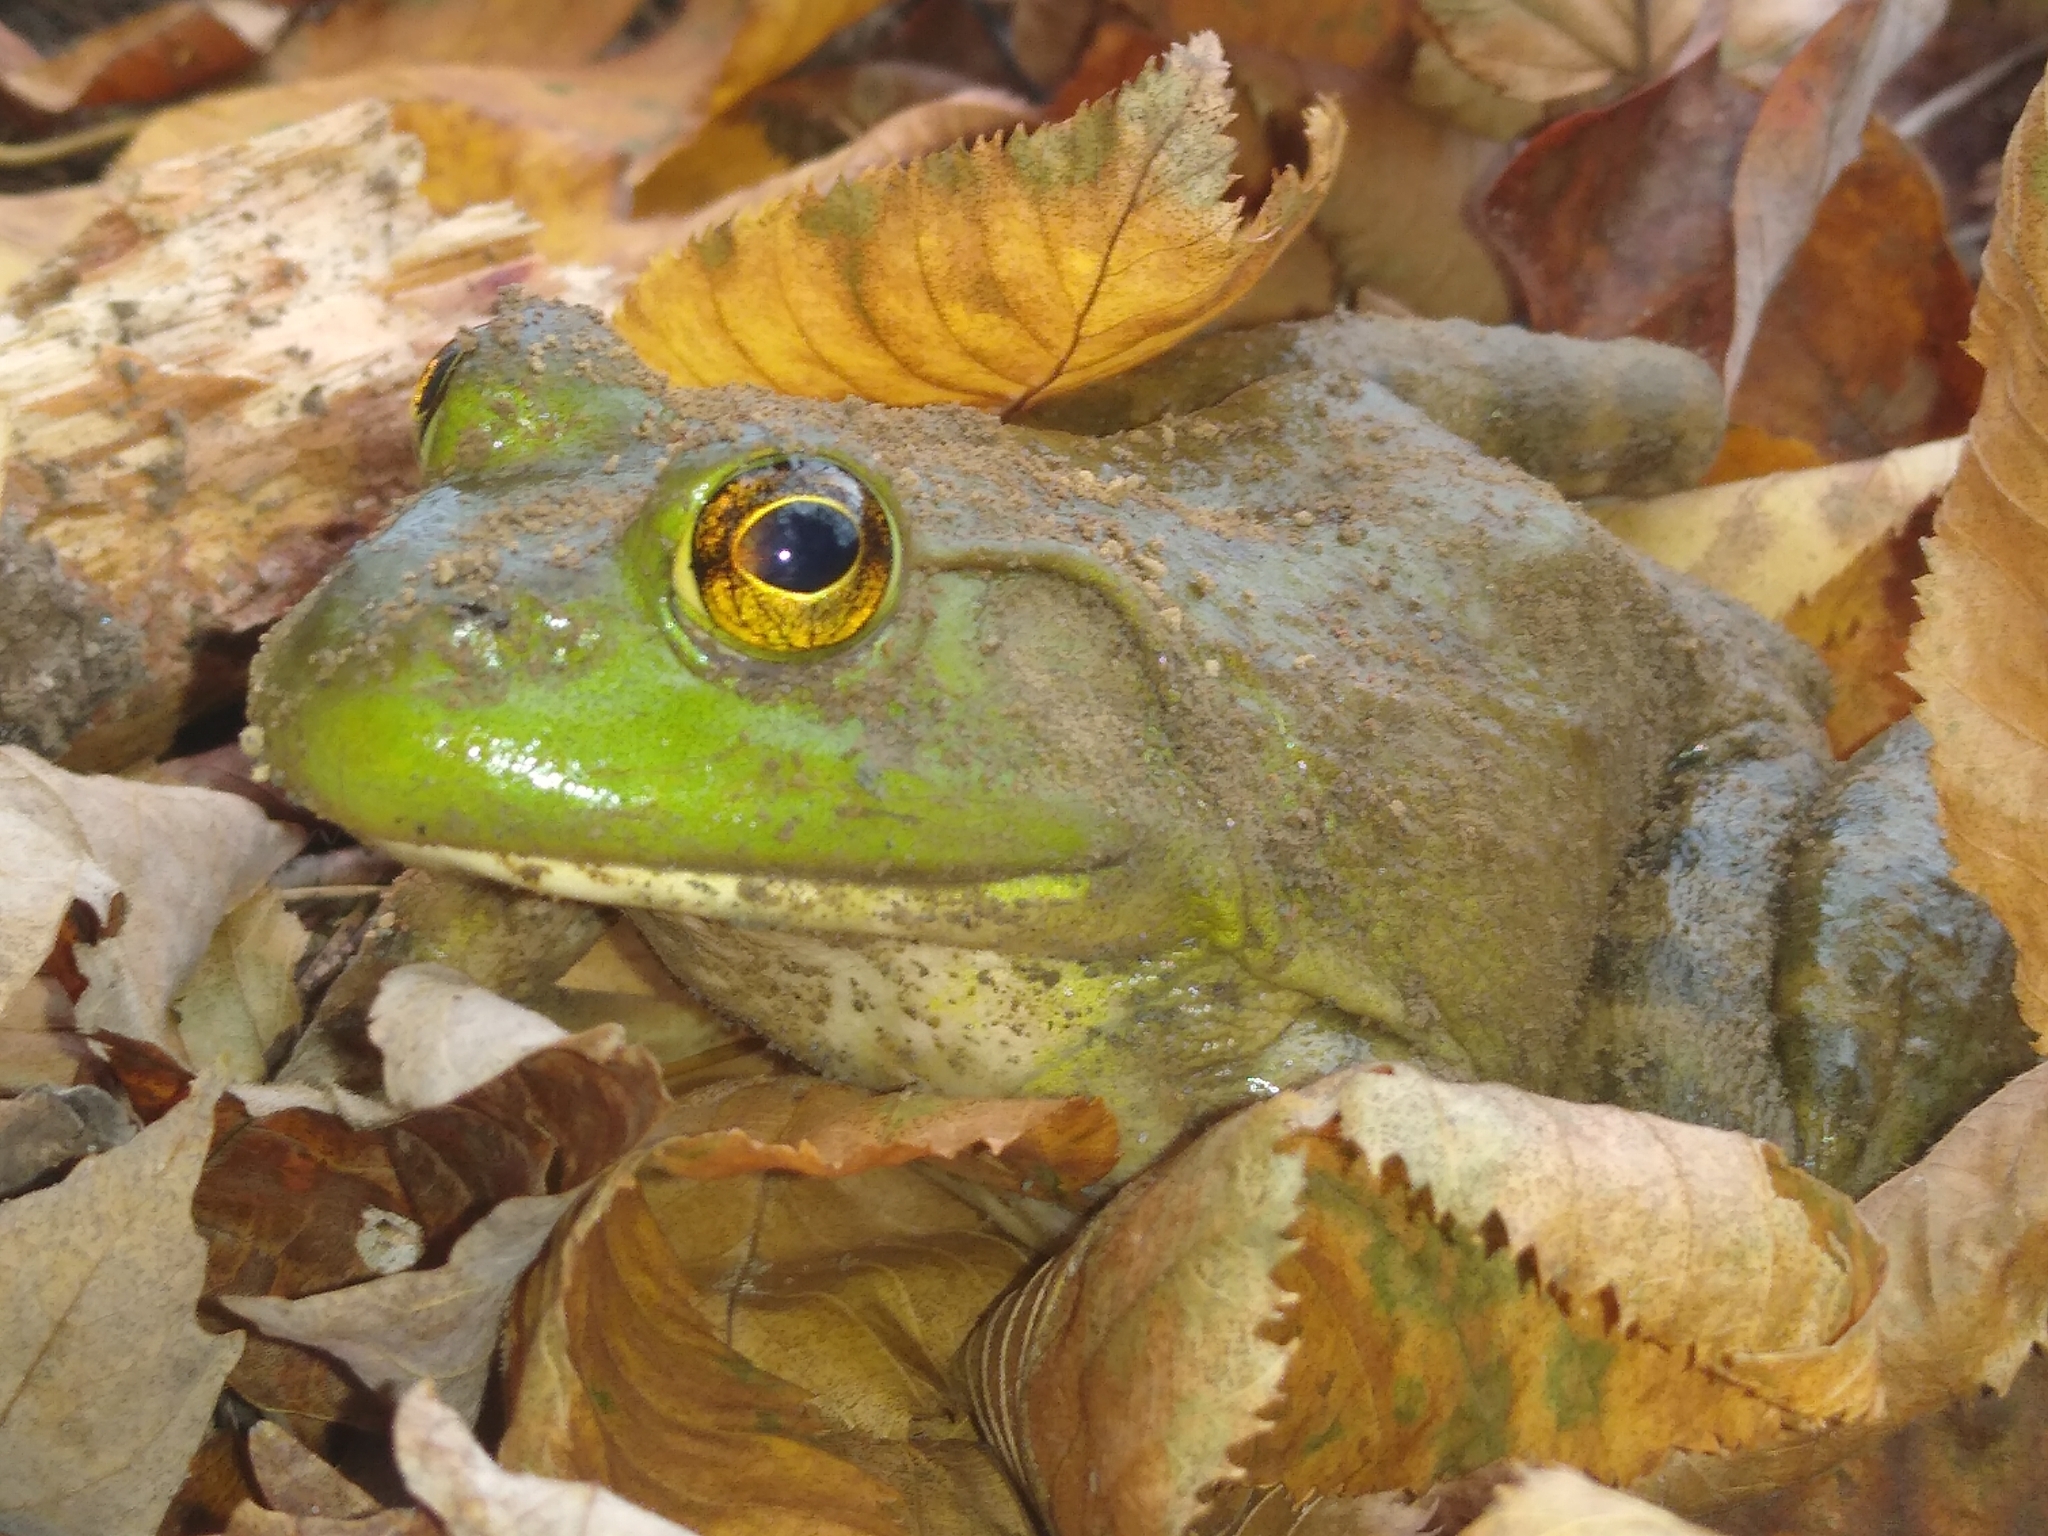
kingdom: Animalia
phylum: Chordata
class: Amphibia
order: Anura
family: Ranidae
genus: Lithobates
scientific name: Lithobates catesbeianus
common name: American bullfrog
